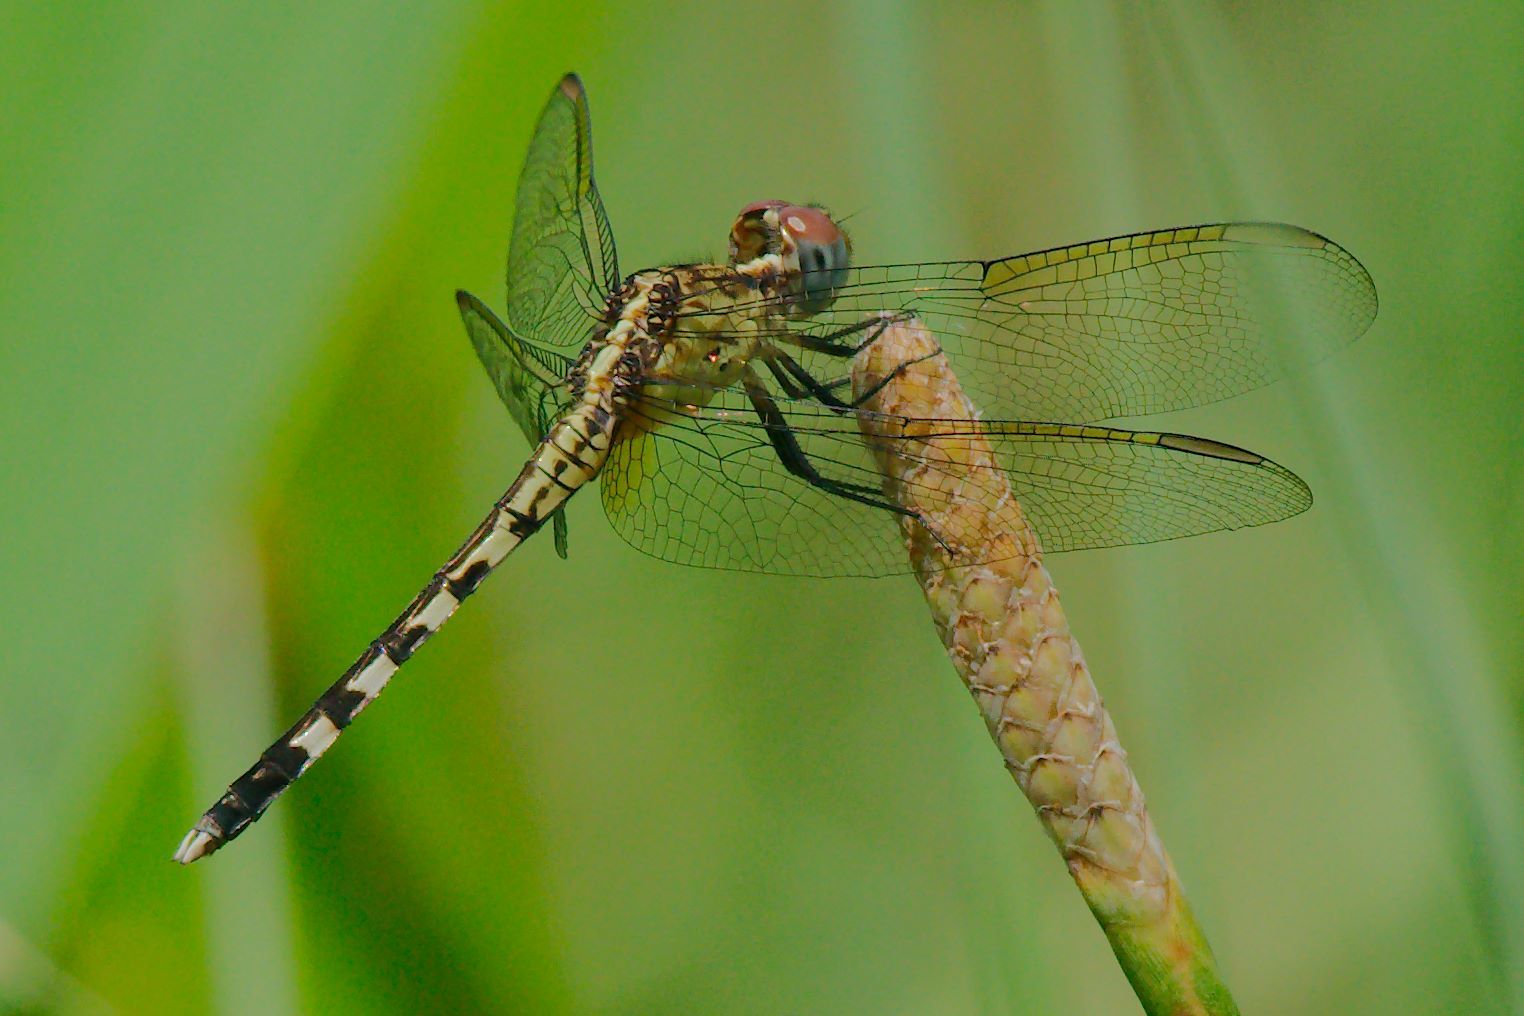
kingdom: Animalia
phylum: Arthropoda
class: Insecta
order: Odonata
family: Libellulidae
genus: Erythrodiplax
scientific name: Erythrodiplax umbrata
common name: Band-winged dragonlet
